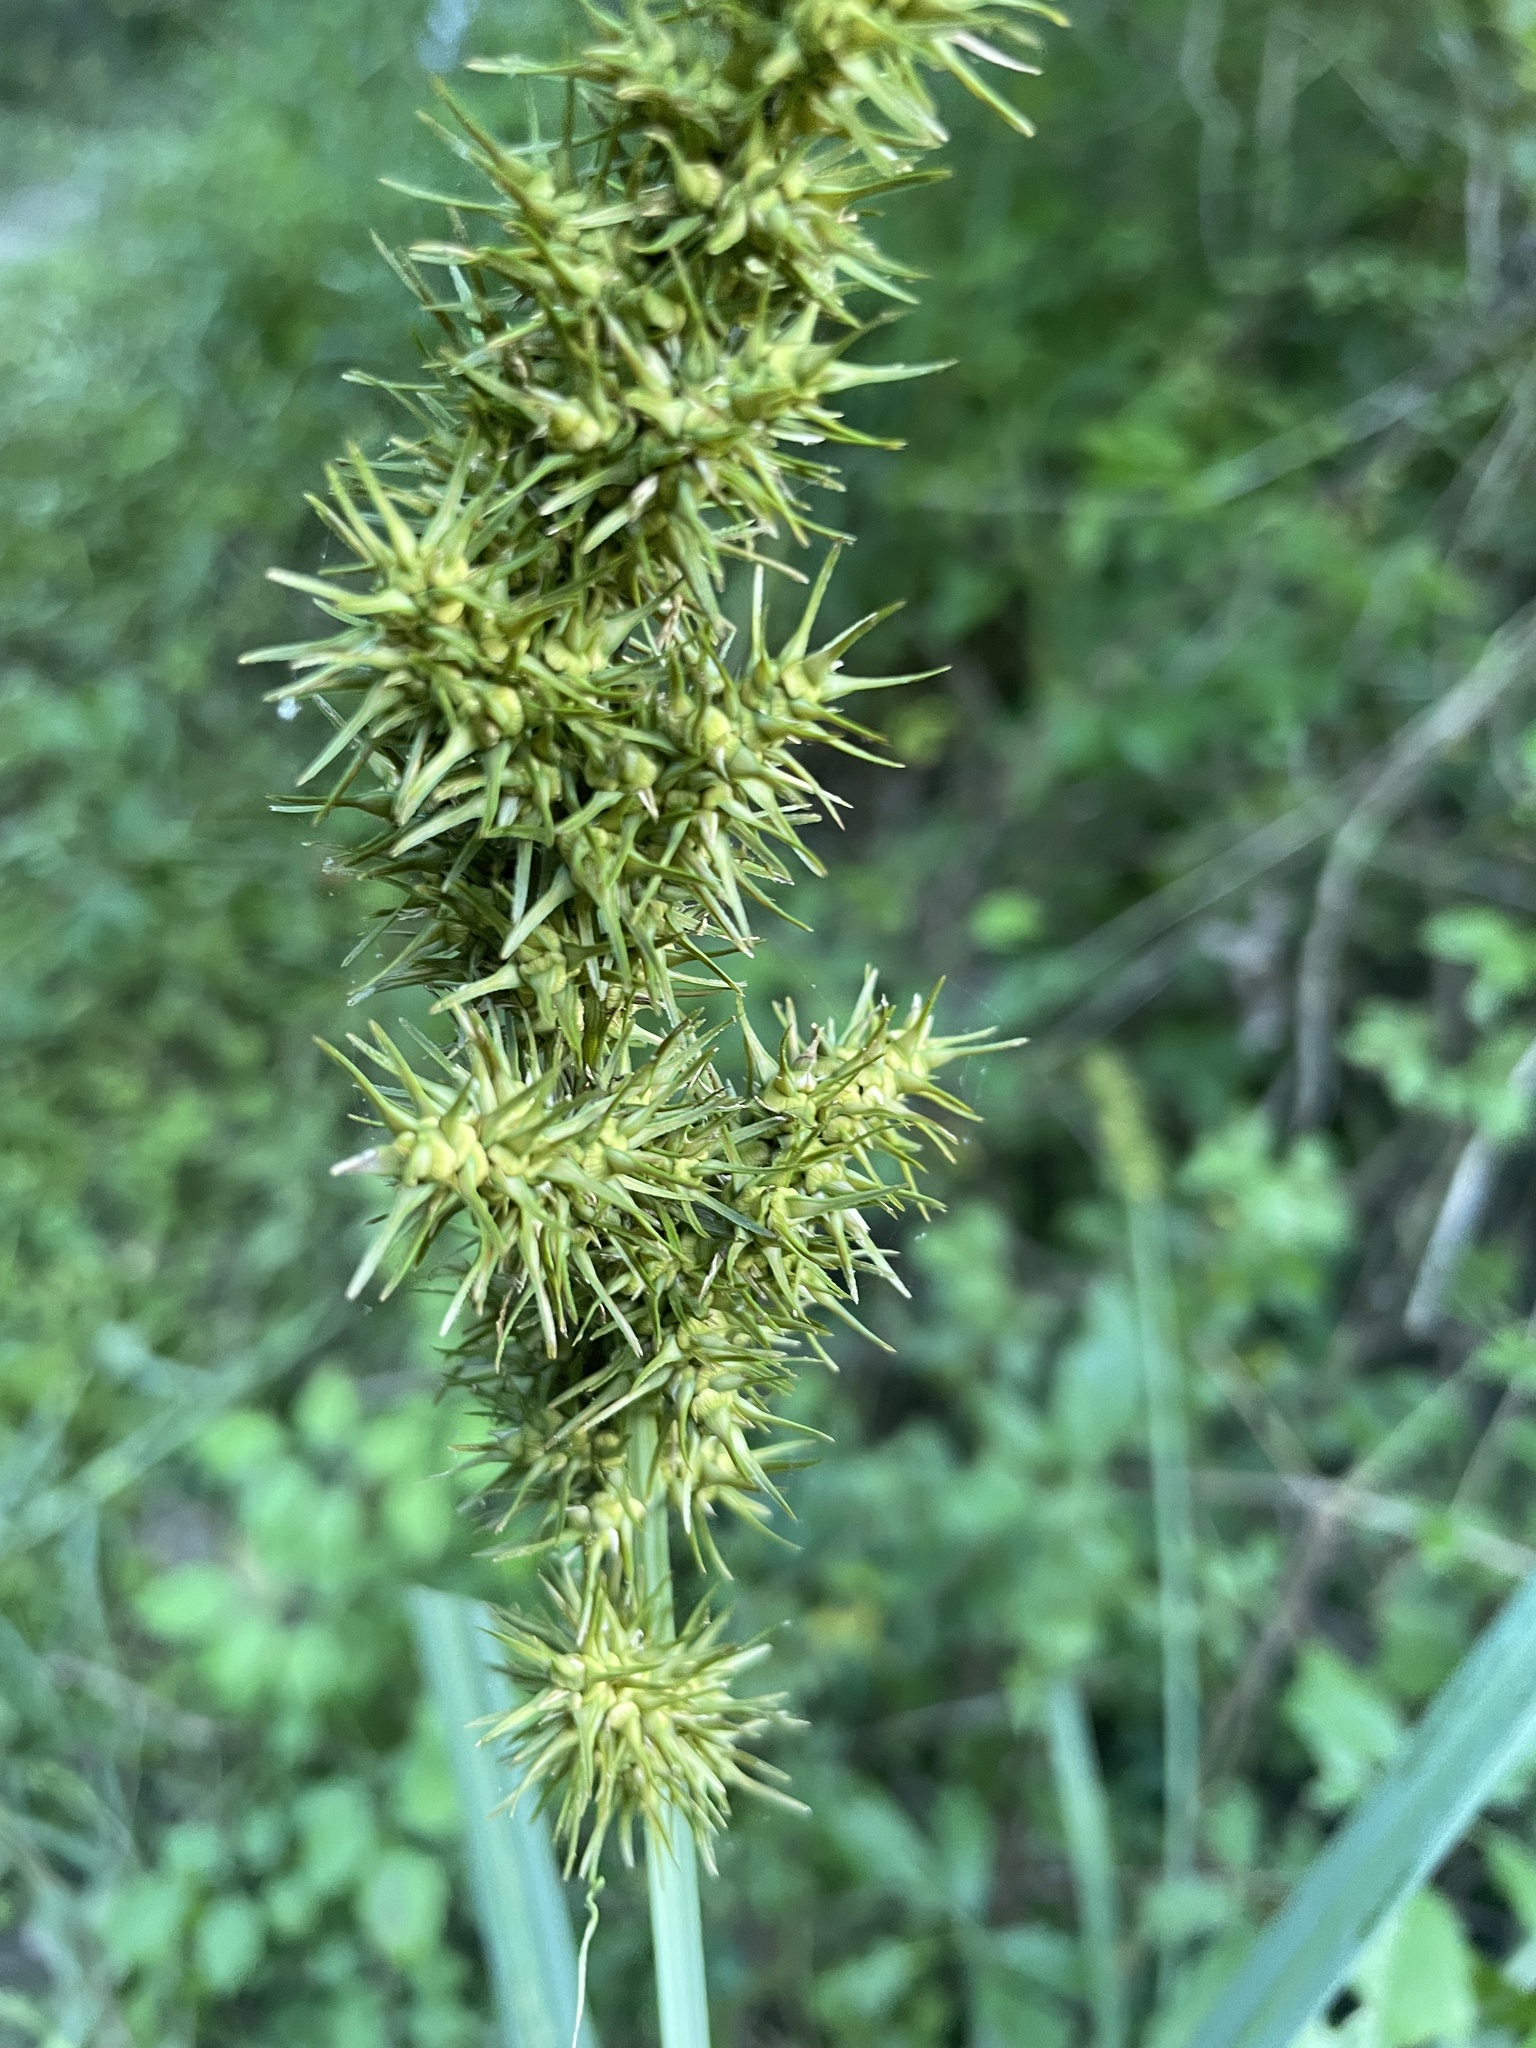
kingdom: Plantae
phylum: Tracheophyta
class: Liliopsida
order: Poales
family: Cyperaceae
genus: Carex
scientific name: Carex crus-corvi
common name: Crow-spur sedge
